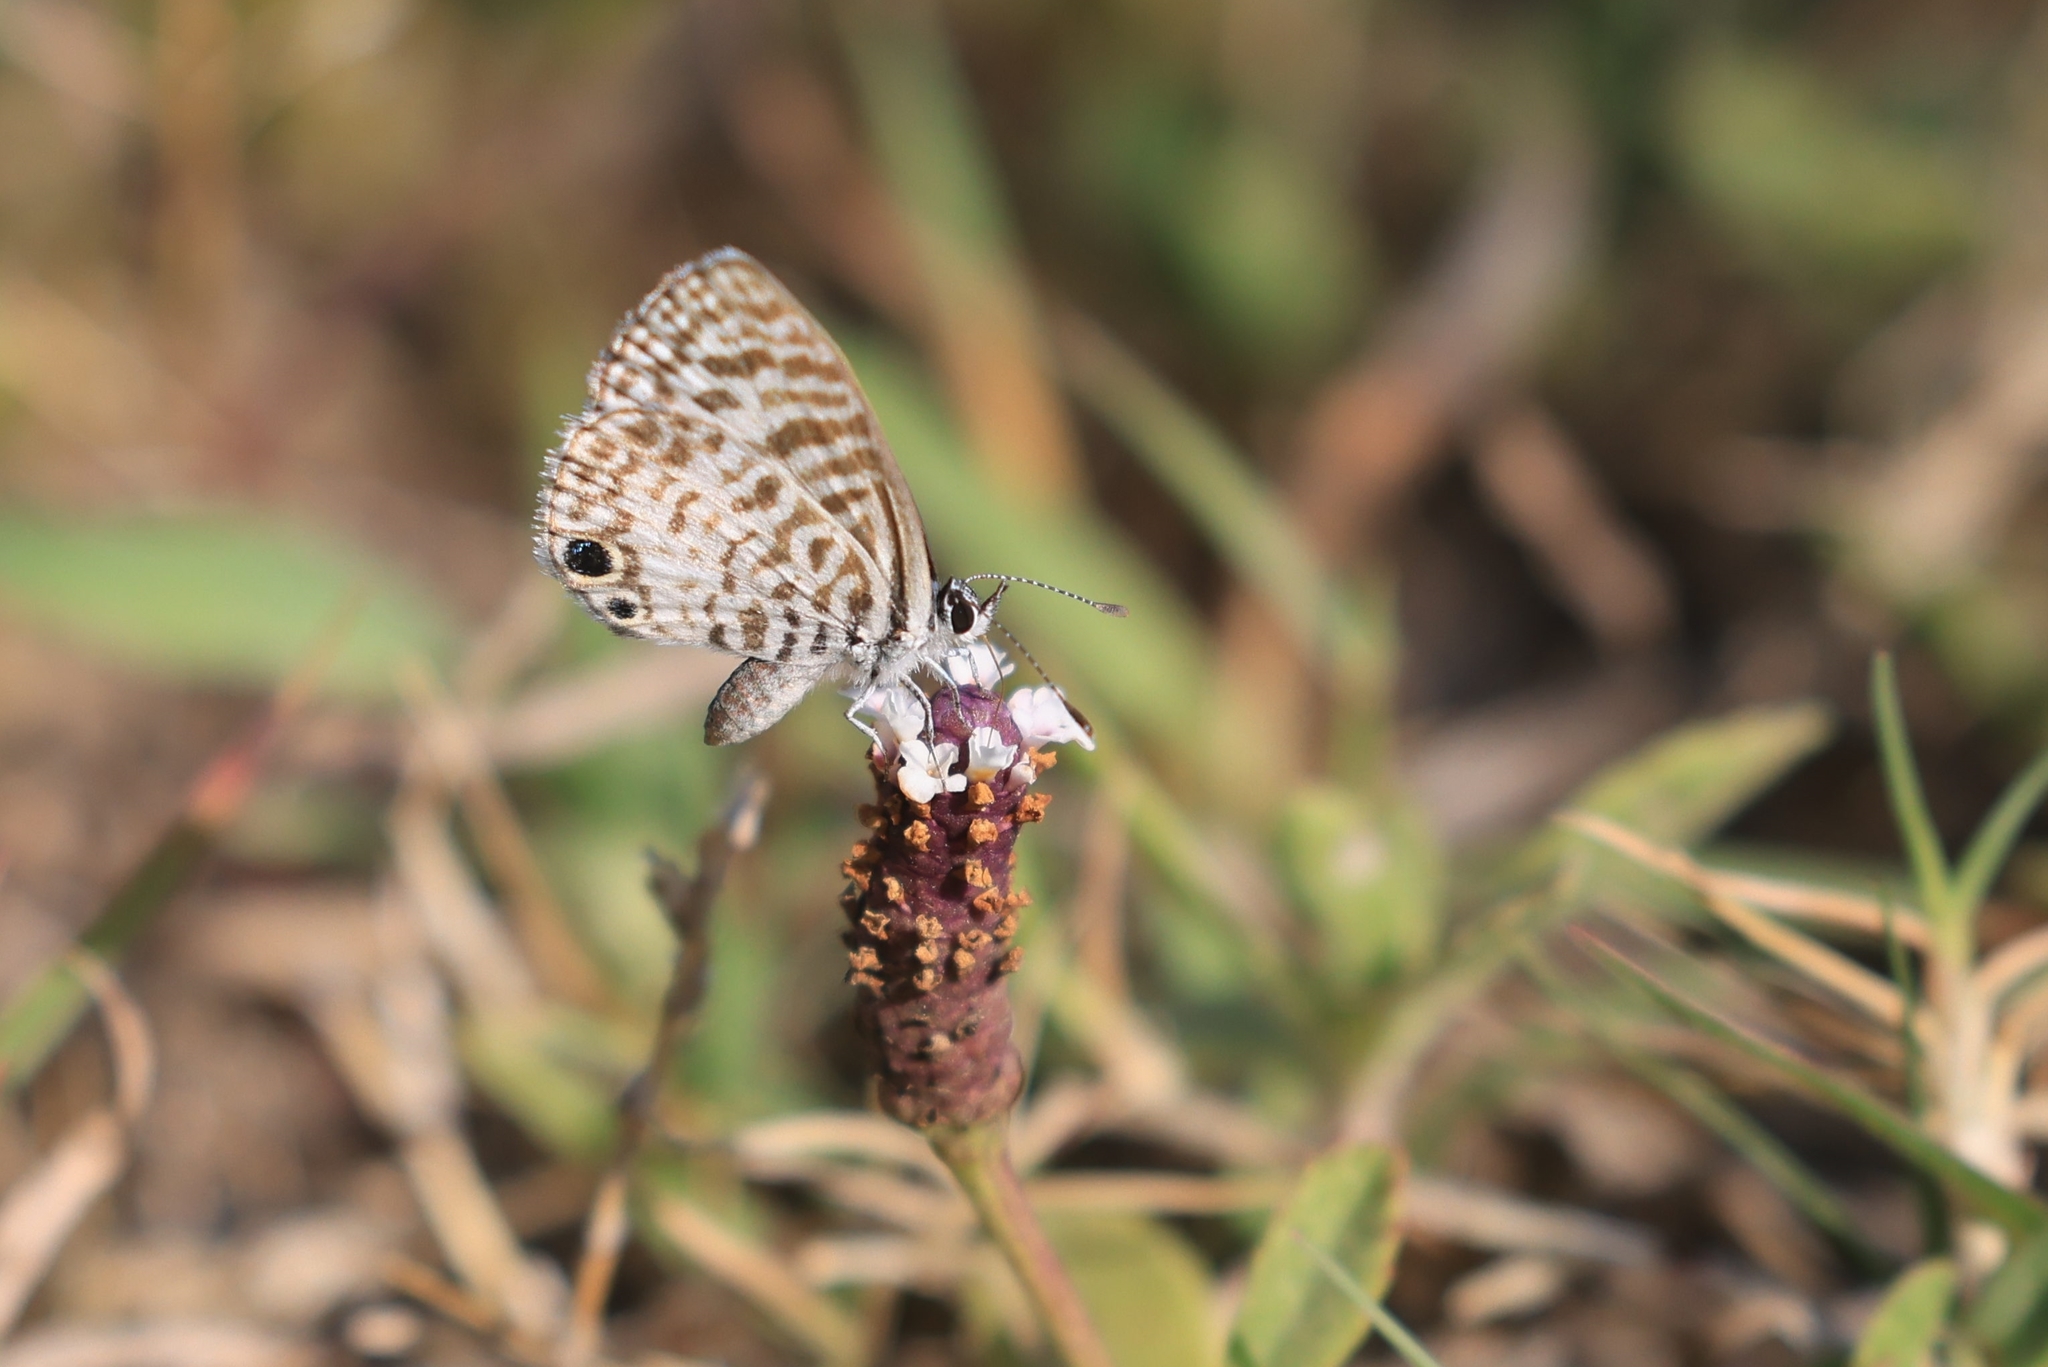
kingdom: Animalia
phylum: Arthropoda
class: Insecta
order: Lepidoptera
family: Lycaenidae
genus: Leptotes
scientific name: Leptotes cassius
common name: Cassius blue
